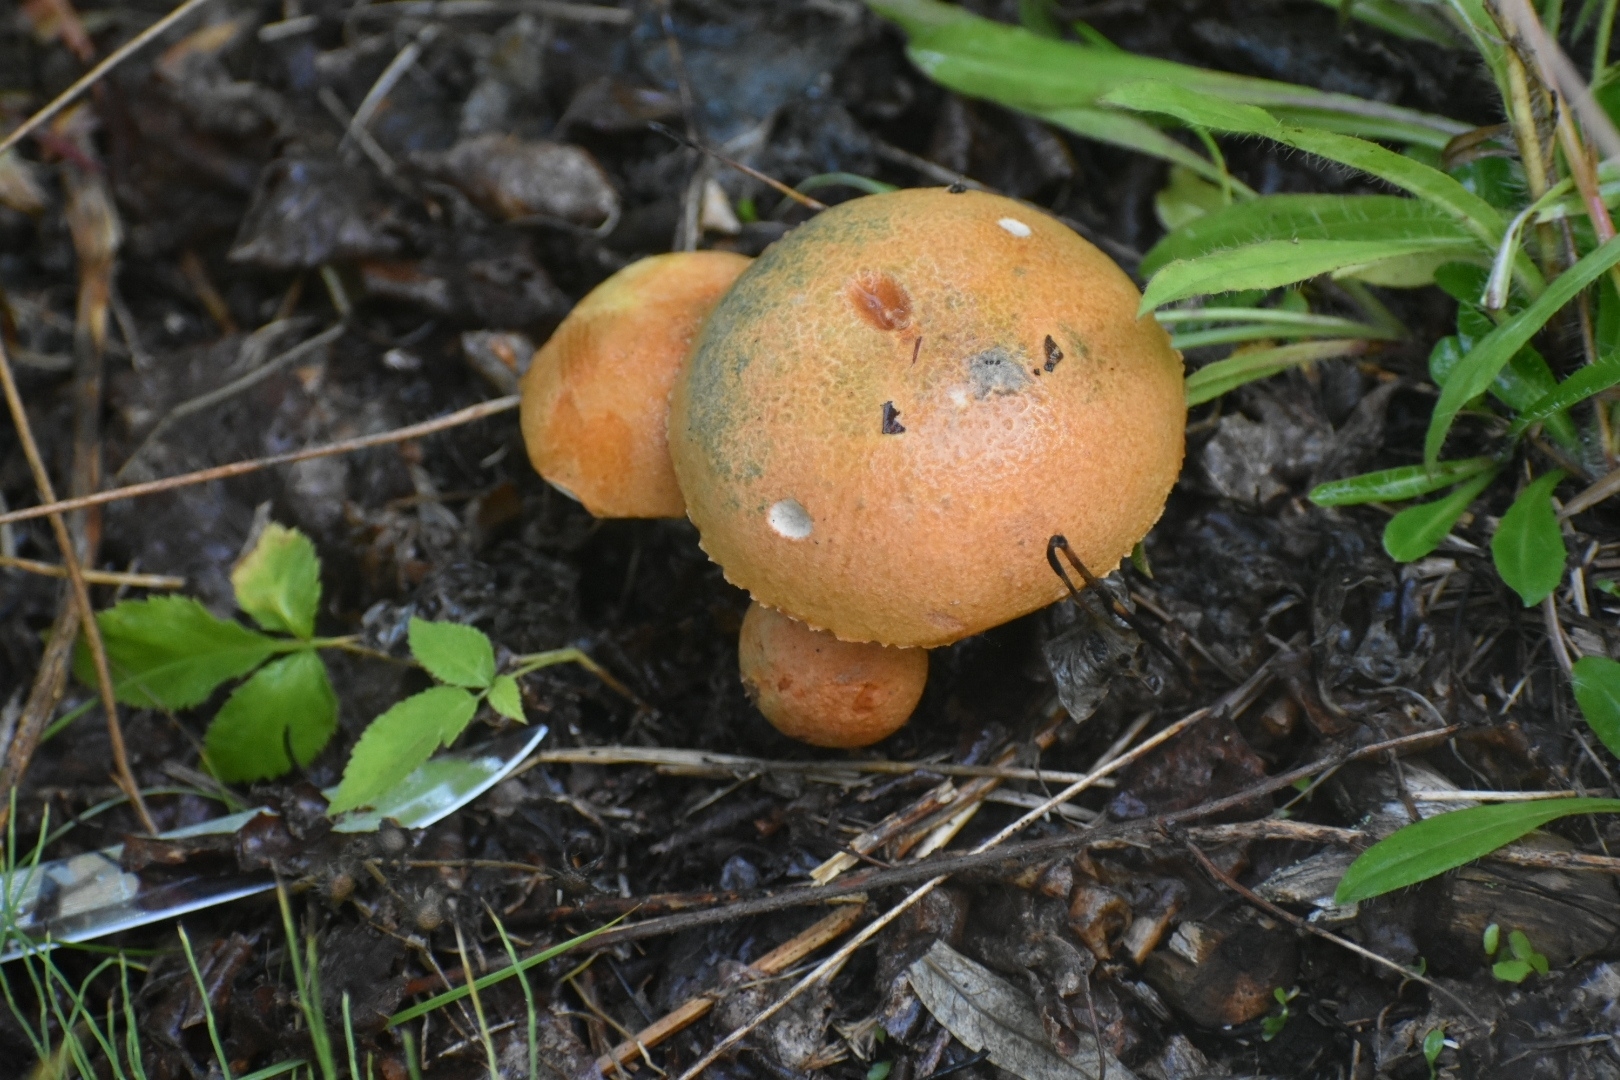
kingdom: Fungi
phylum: Basidiomycota
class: Agaricomycetes
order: Boletales
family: Boletaceae
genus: Leccinum
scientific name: Leccinum aurantiacum
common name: Orange bolete
